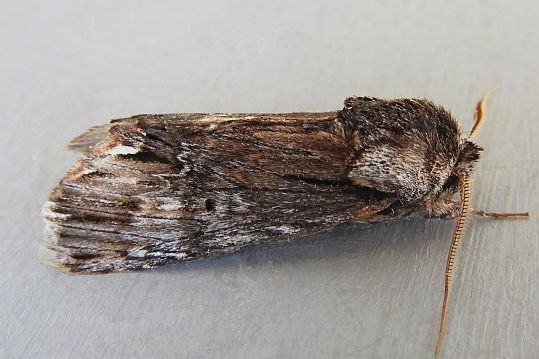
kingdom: Animalia
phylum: Arthropoda
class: Insecta
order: Lepidoptera
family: Notodontidae
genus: Oligocentria
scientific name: Oligocentria Ianassa paradisus
